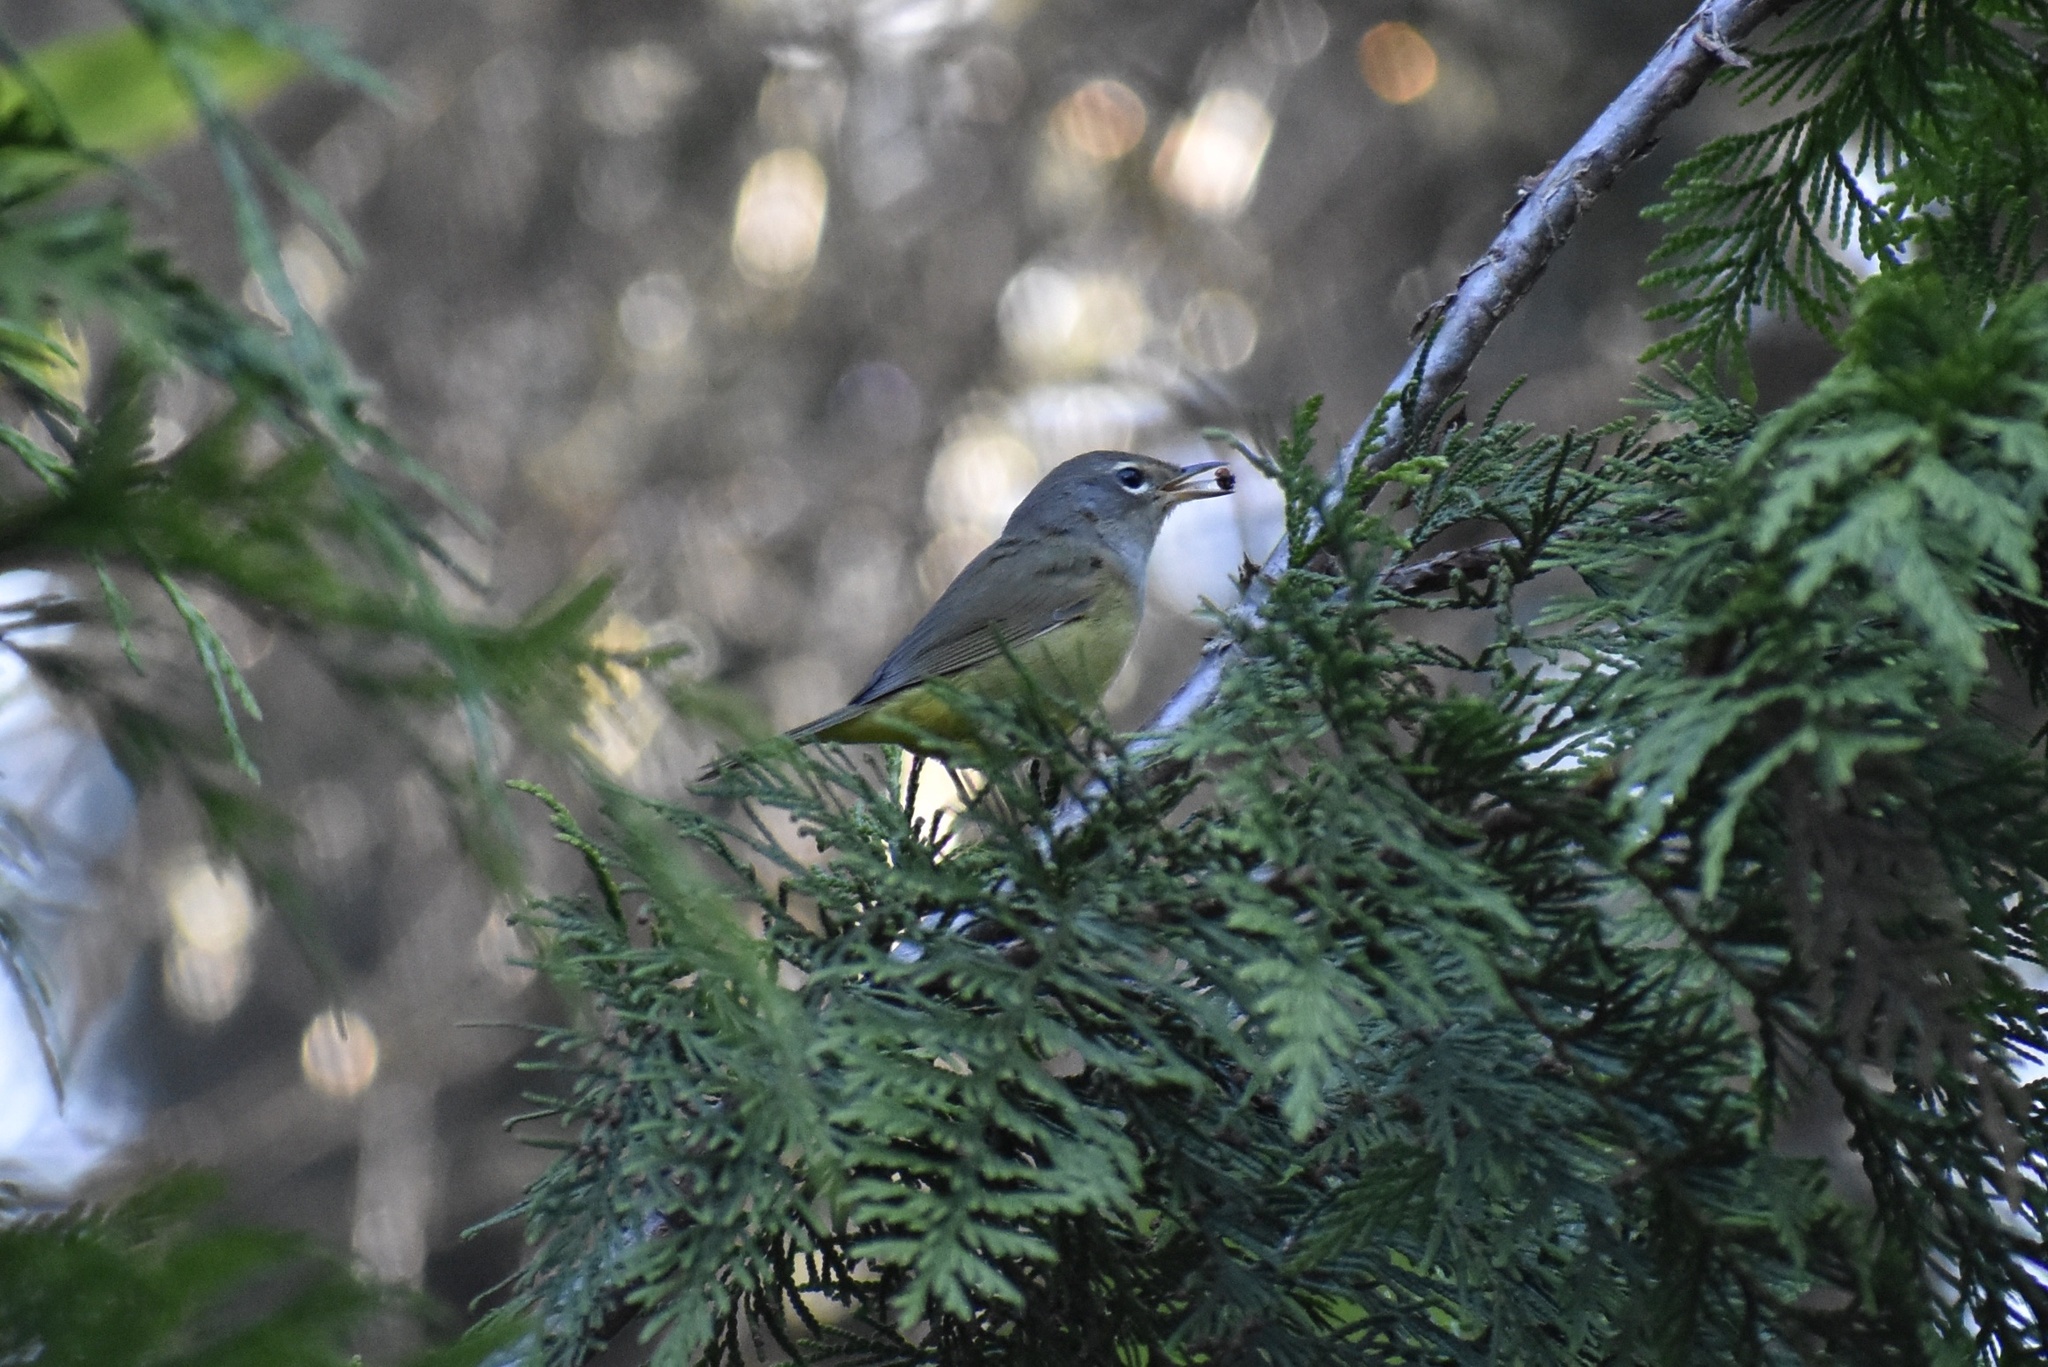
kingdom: Animalia
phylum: Chordata
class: Aves
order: Passeriformes
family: Parulidae
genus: Geothlypis
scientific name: Geothlypis tolmiei
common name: Macgillivray's warbler
